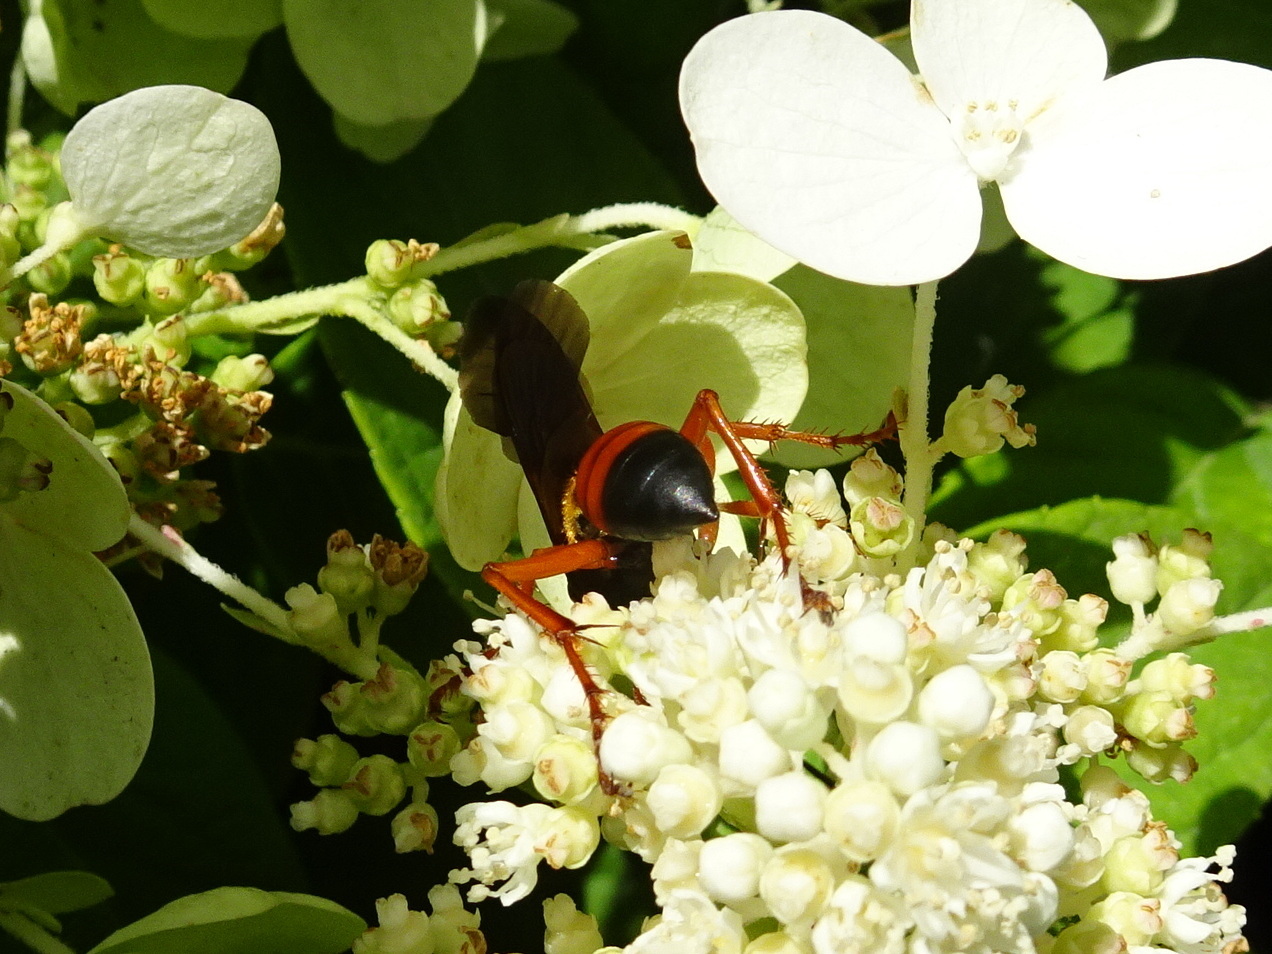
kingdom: Animalia
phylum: Arthropoda
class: Insecta
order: Hymenoptera
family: Sphecidae
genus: Sphex
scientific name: Sphex ichneumoneus
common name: Great golden digger wasp
